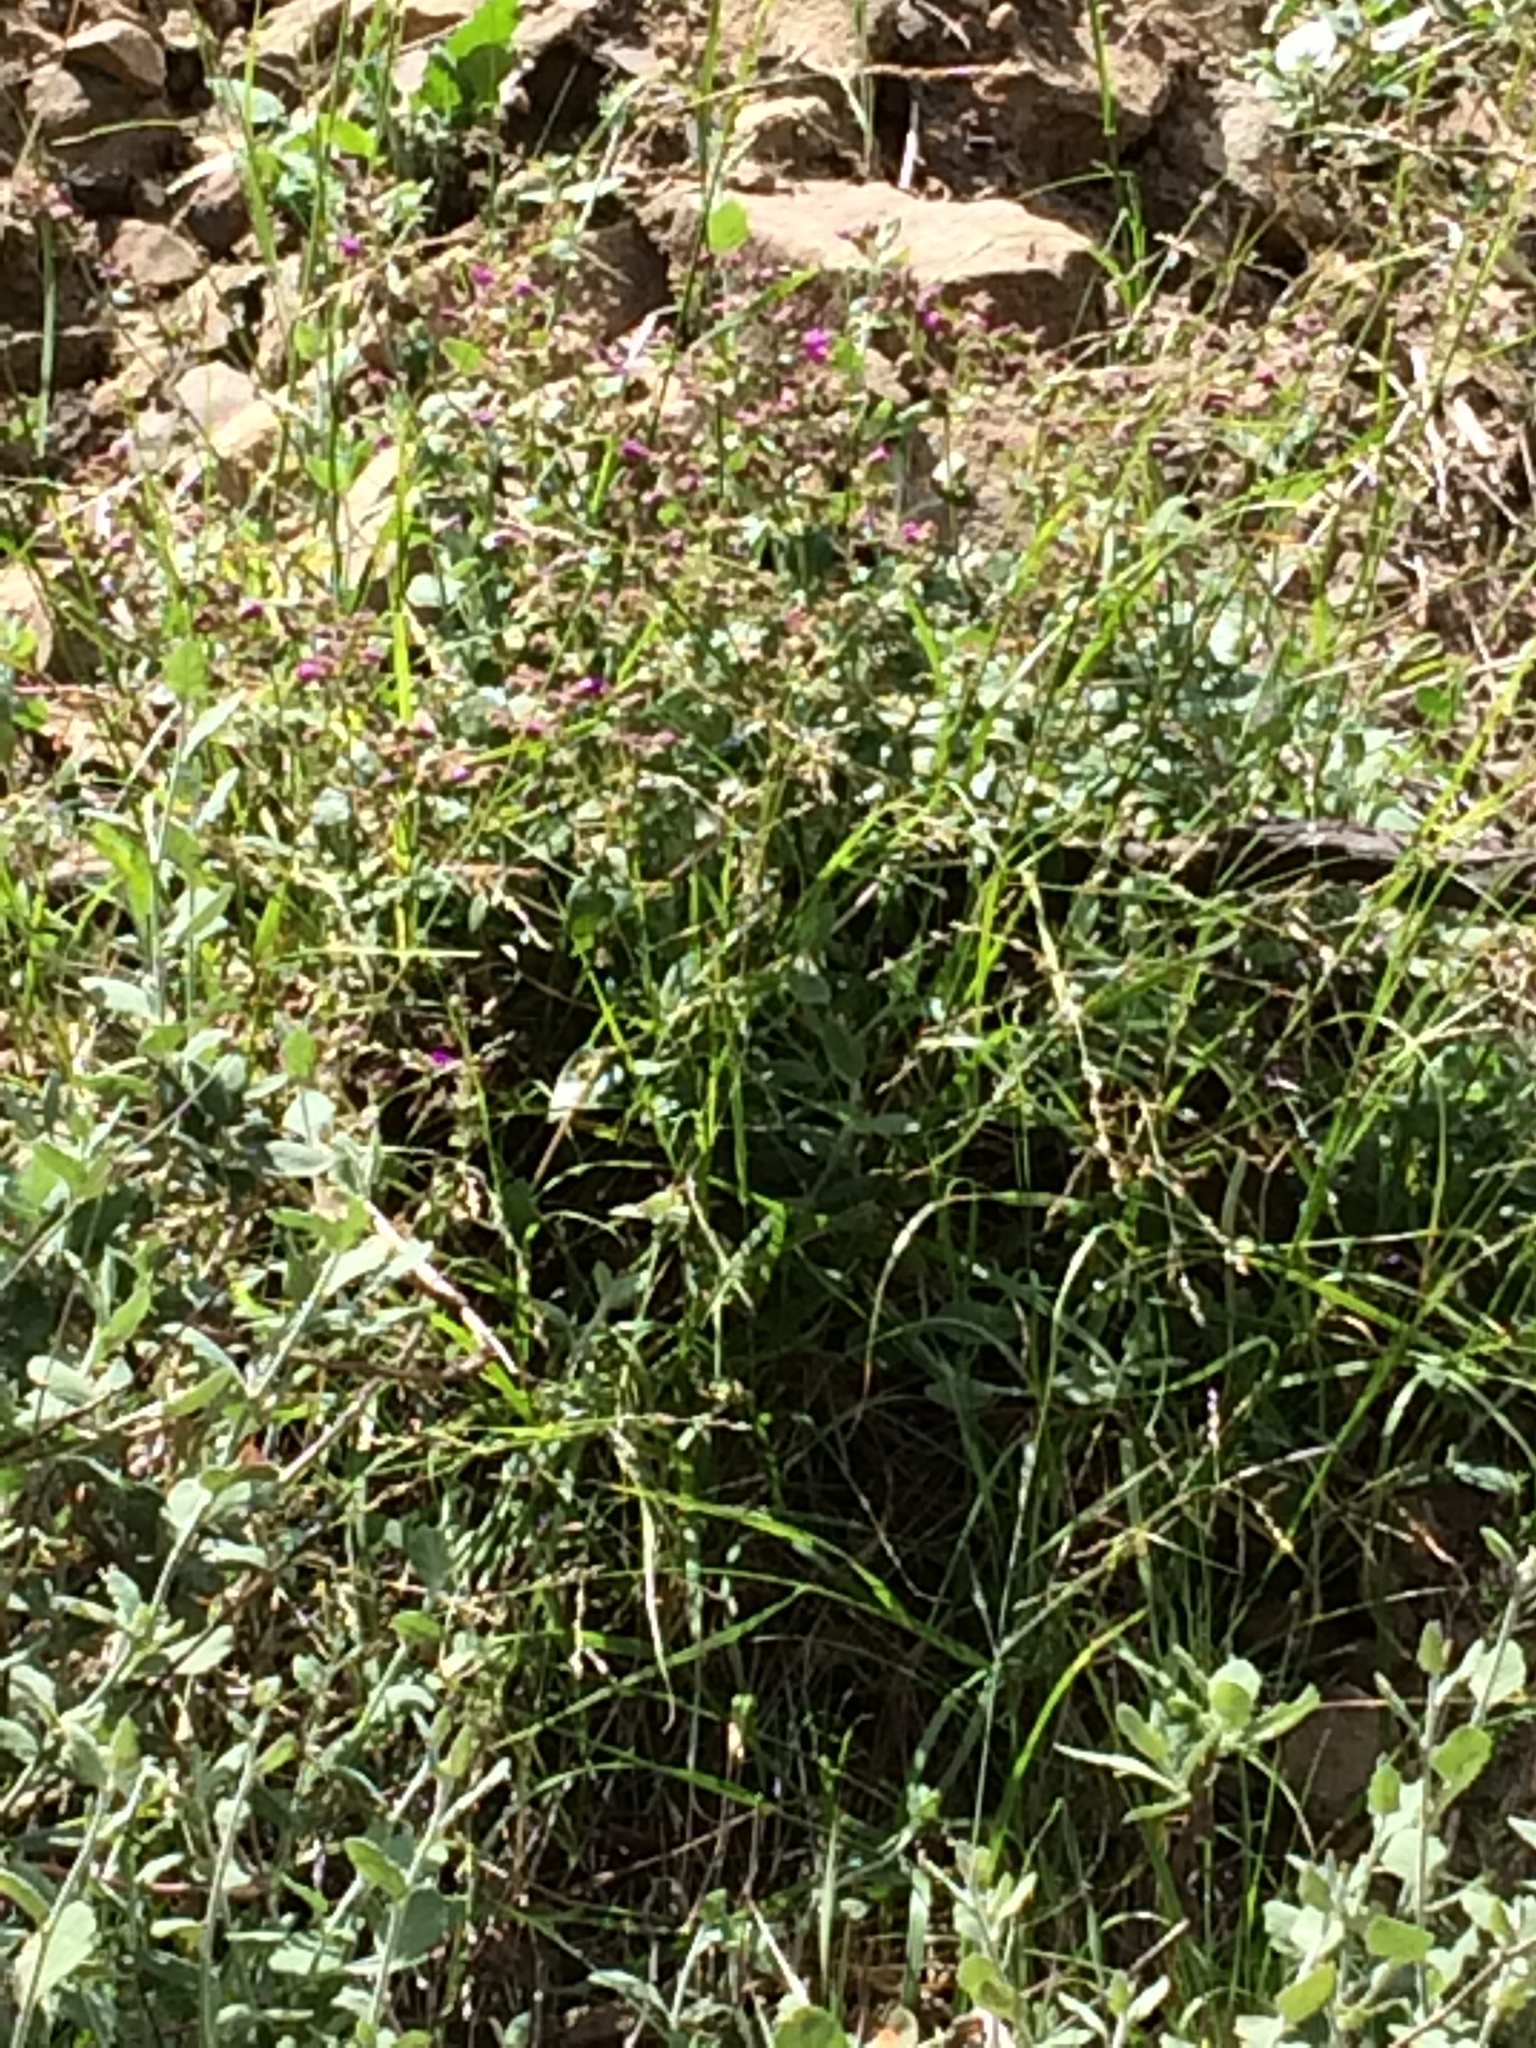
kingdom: Plantae
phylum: Tracheophyta
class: Magnoliopsida
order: Caryophyllales
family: Nyctaginaceae
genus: Mirabilis
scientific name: Mirabilis laevis
